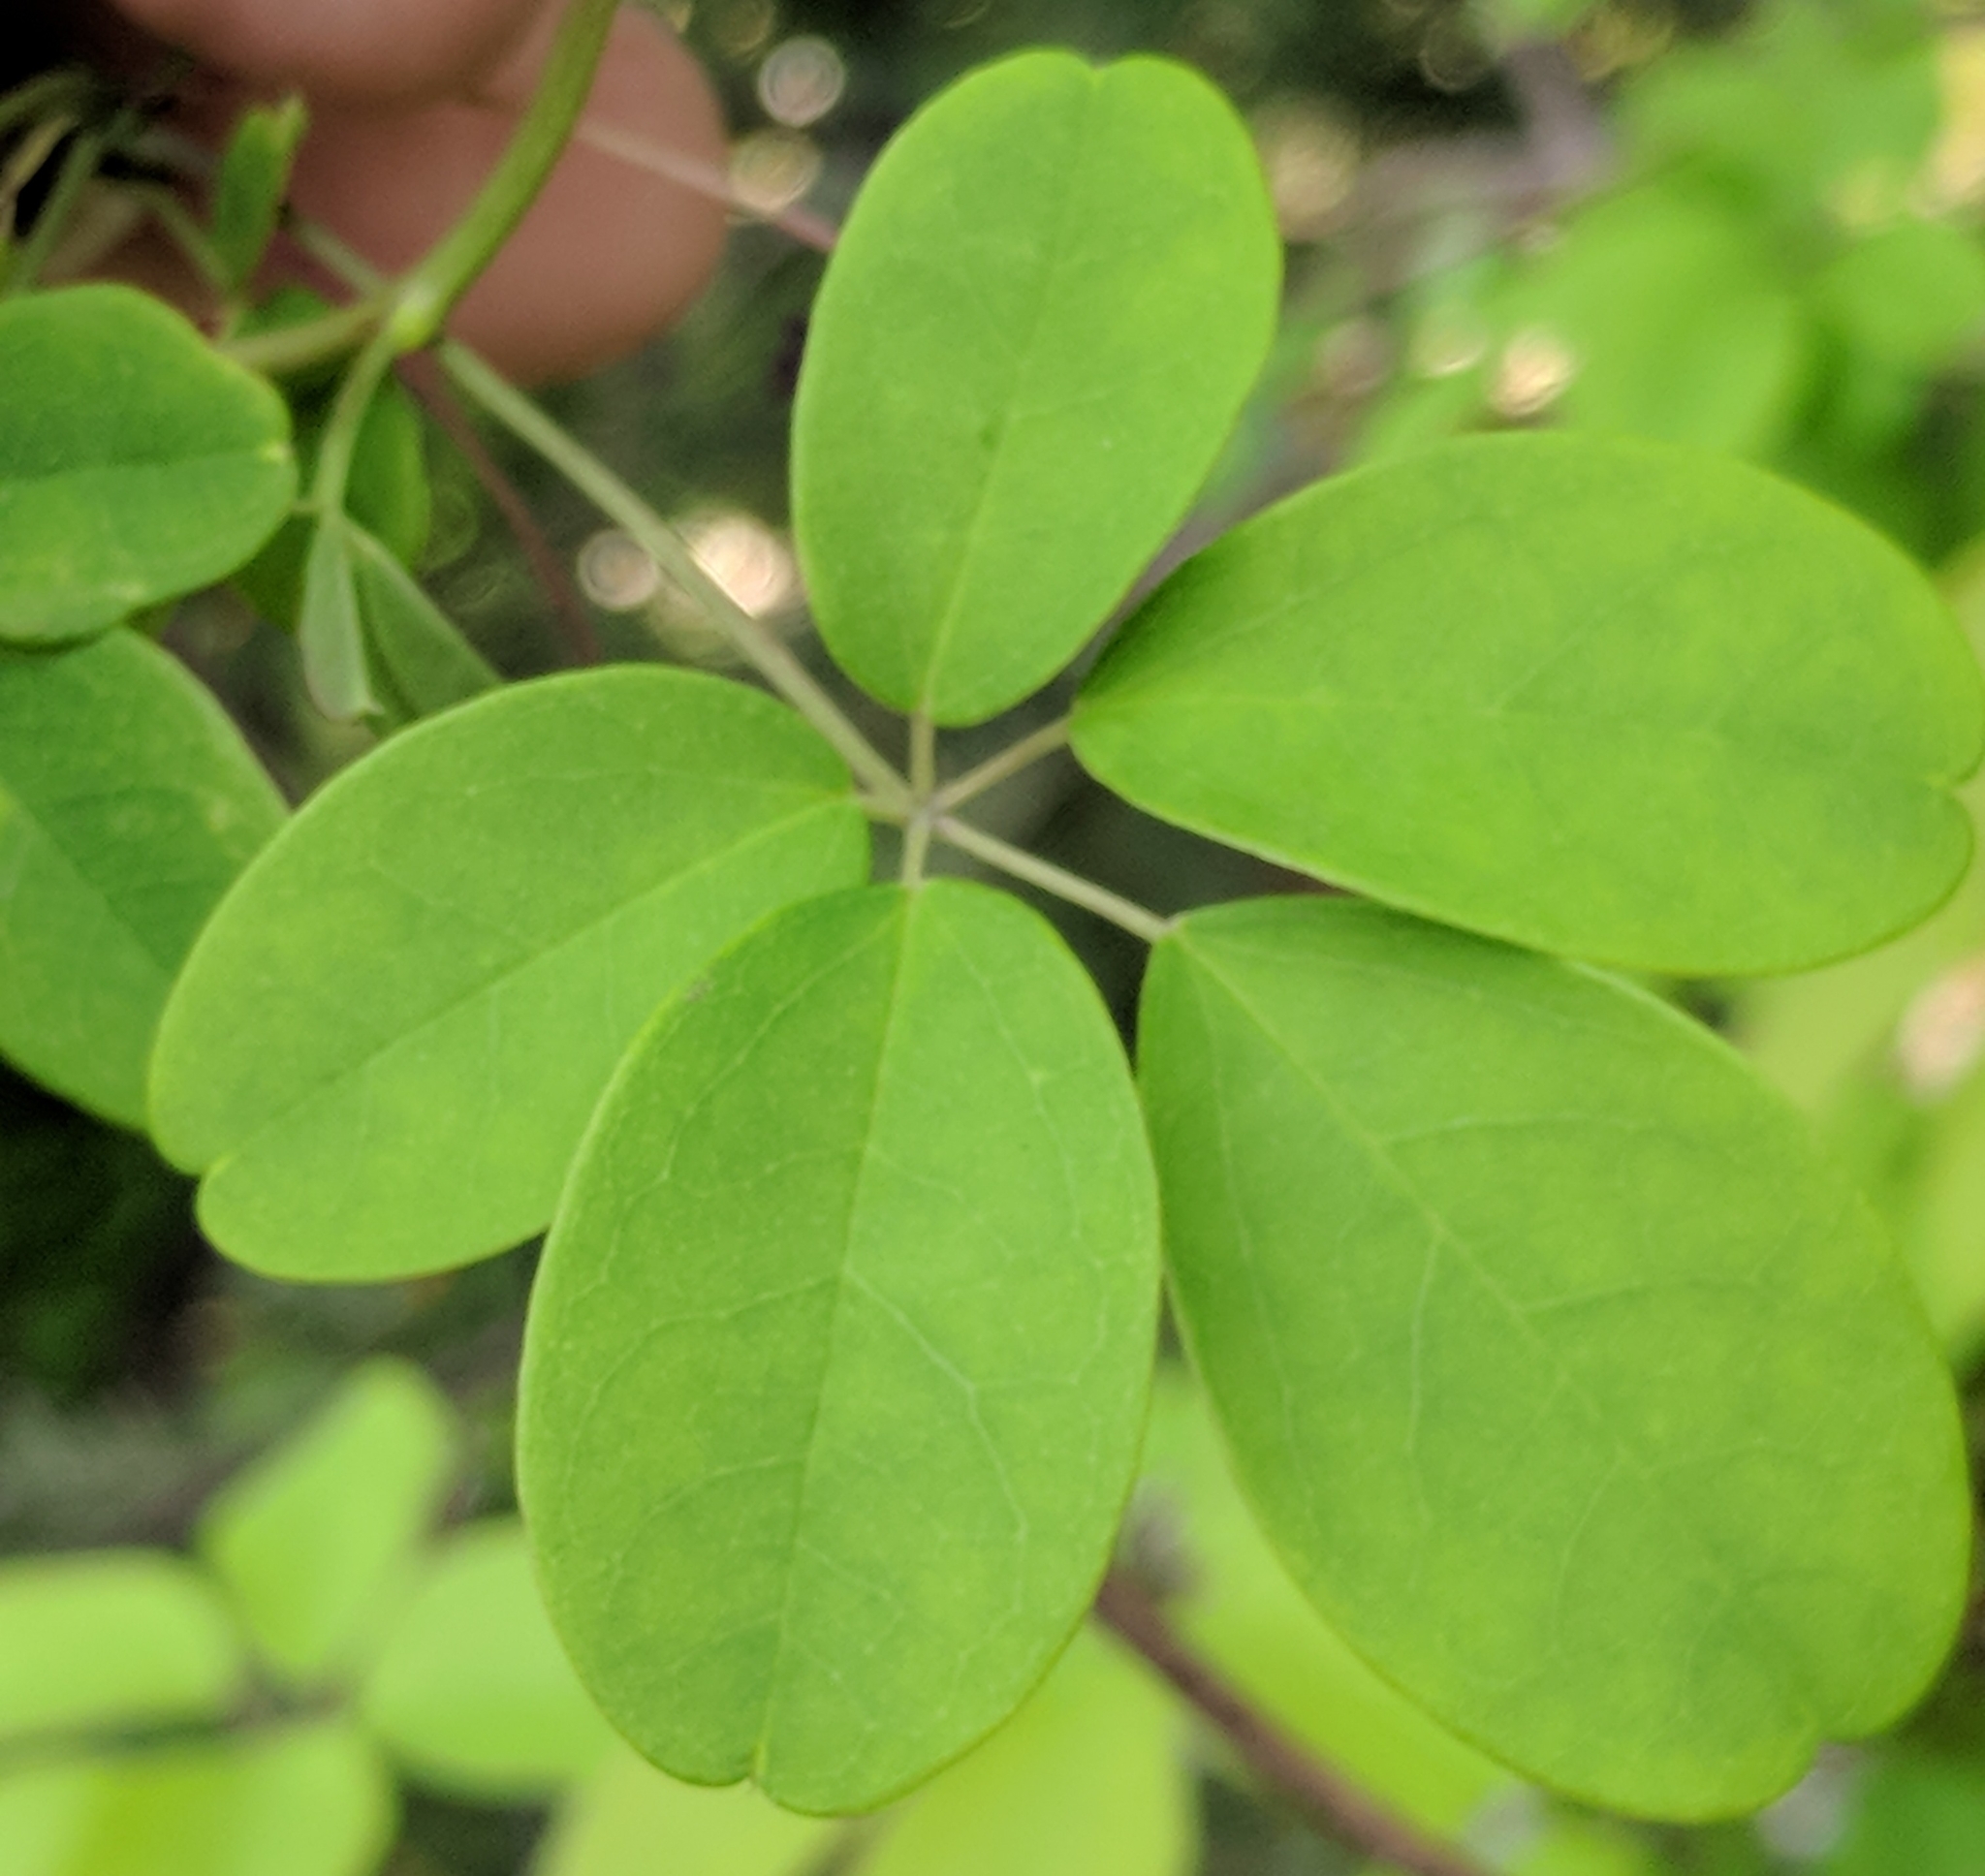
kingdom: Plantae
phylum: Tracheophyta
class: Magnoliopsida
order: Ranunculales
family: Lardizabalaceae
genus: Akebia
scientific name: Akebia quinata
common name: Five-leaf akebia
